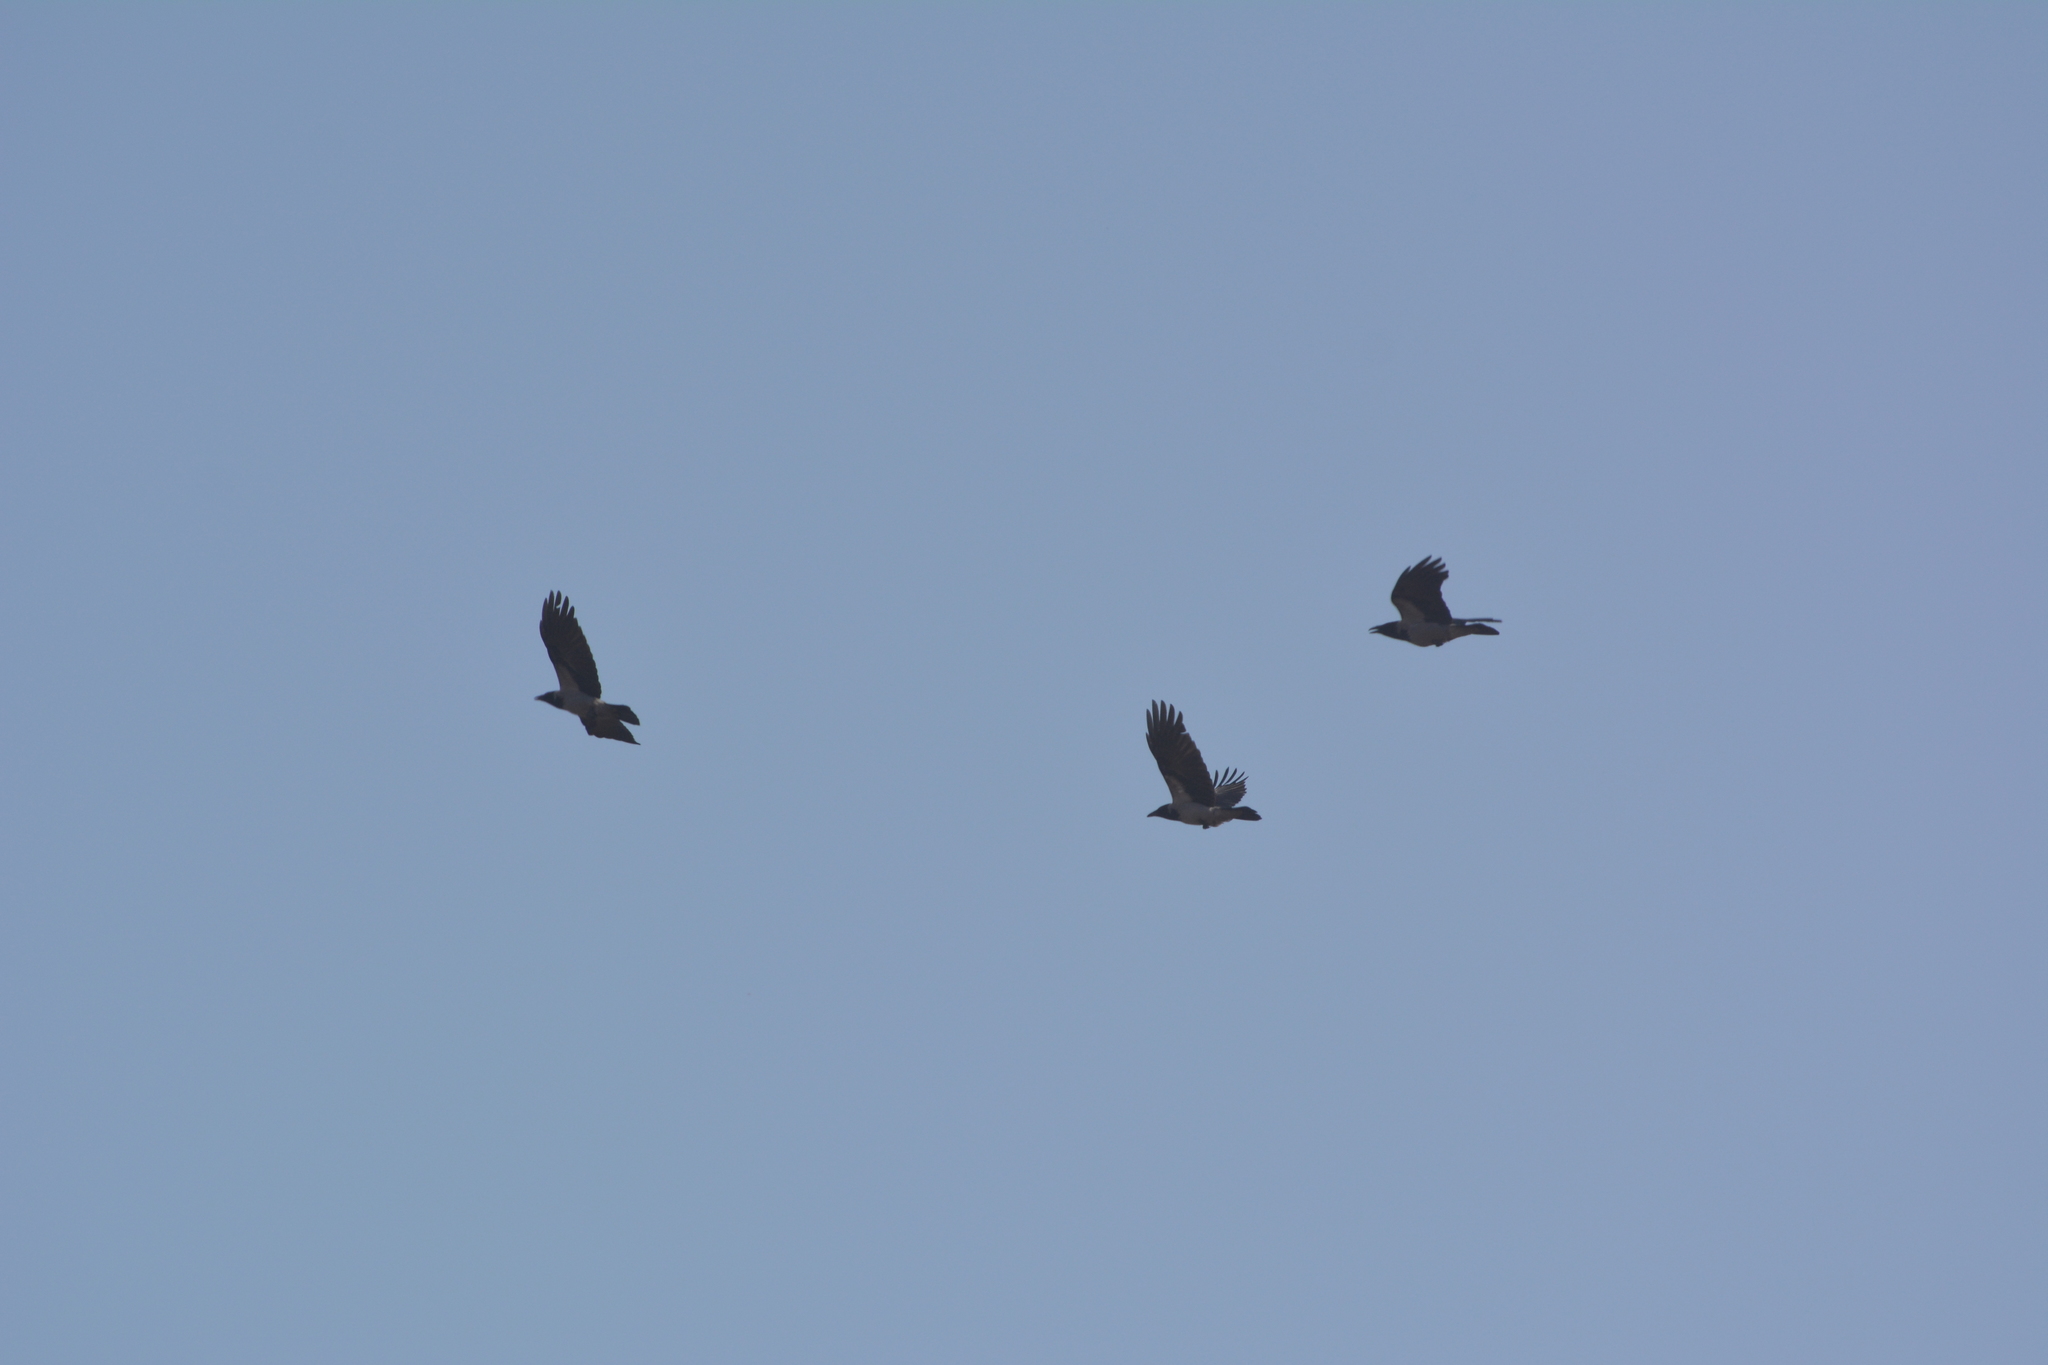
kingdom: Animalia
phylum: Chordata
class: Aves
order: Passeriformes
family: Corvidae
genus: Corvus
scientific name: Corvus cornix
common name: Hooded crow
